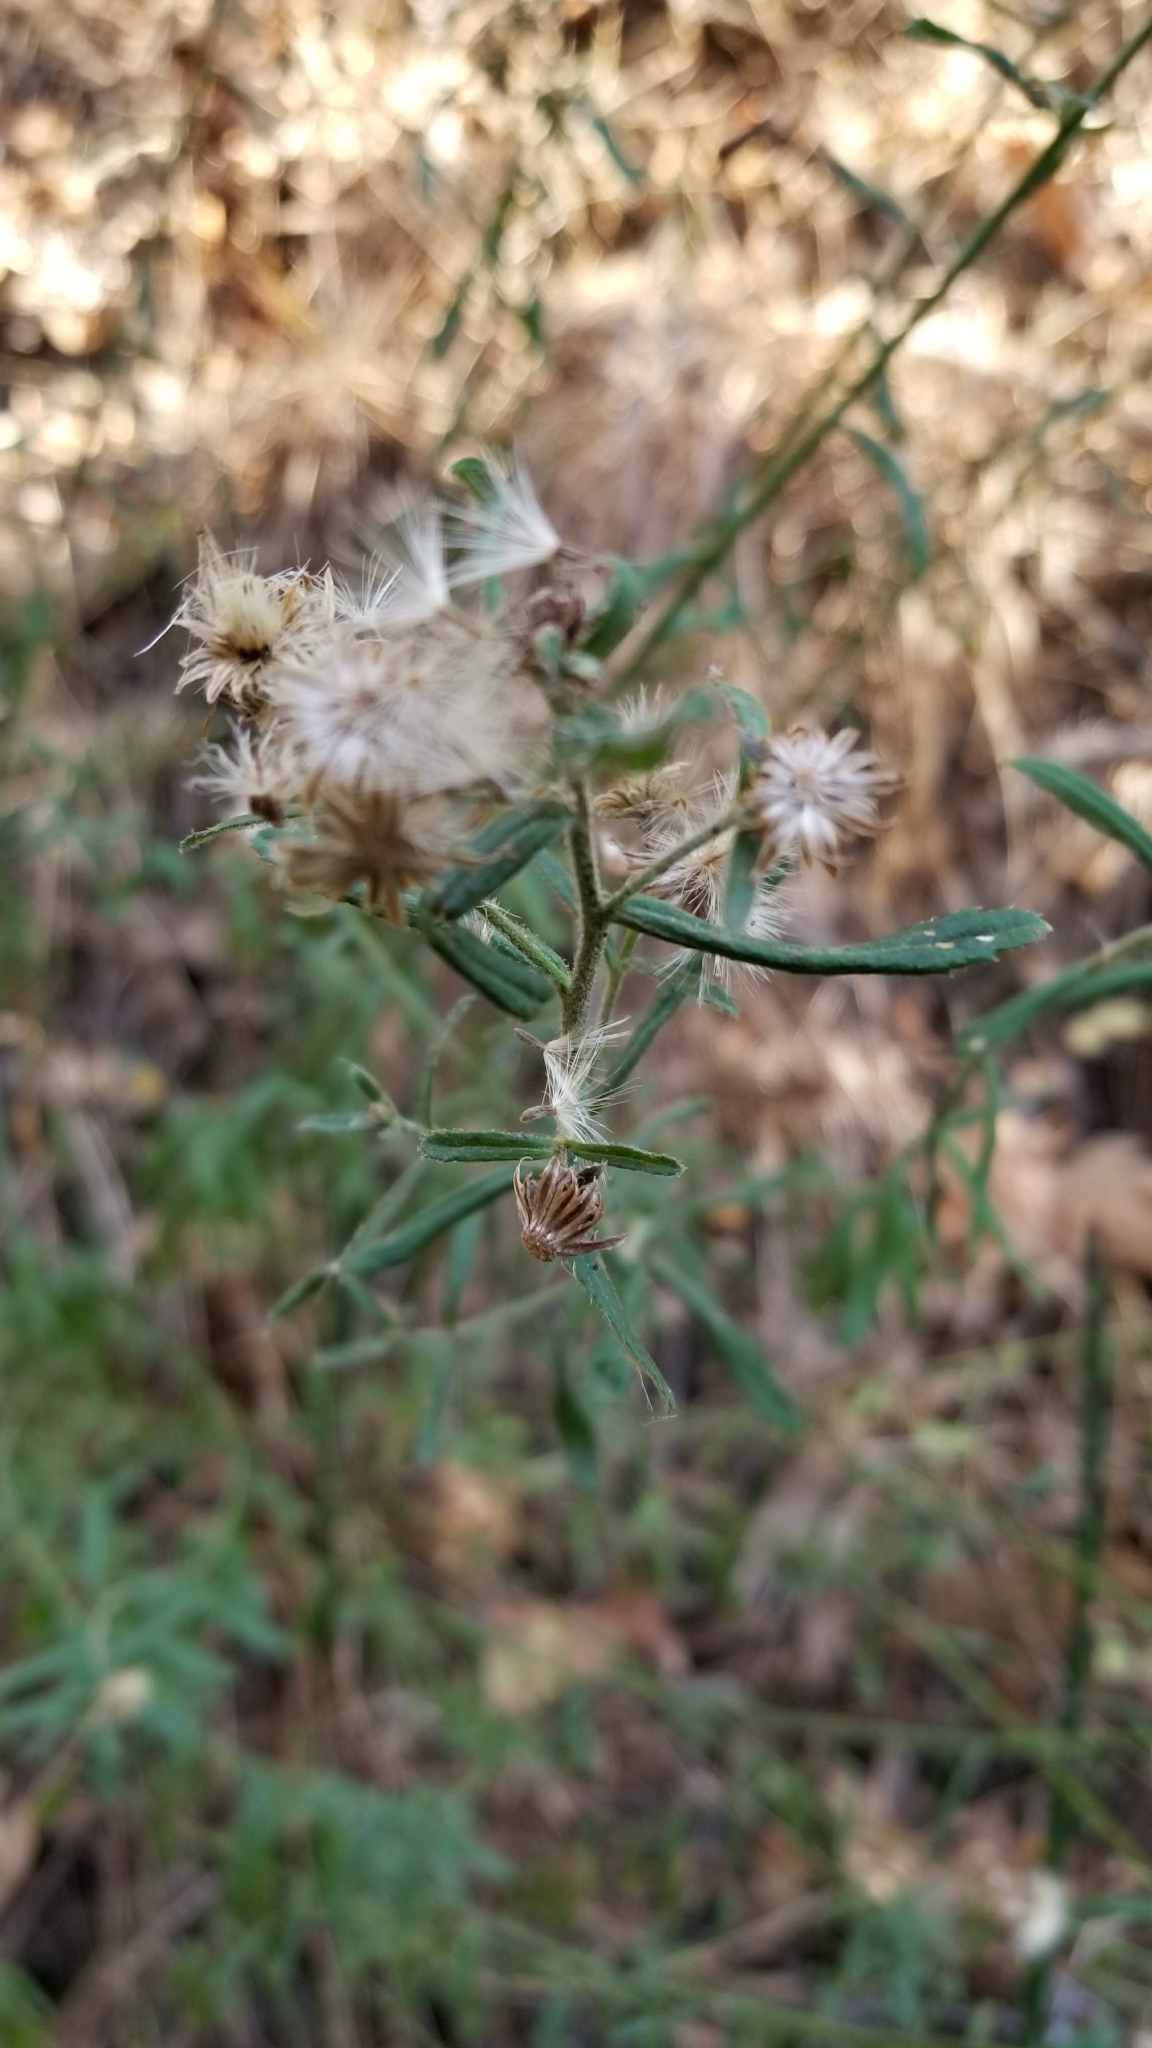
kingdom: Plantae
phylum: Tracheophyta
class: Magnoliopsida
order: Asterales
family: Asteraceae
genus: Baccharis
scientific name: Baccharis plummerae
